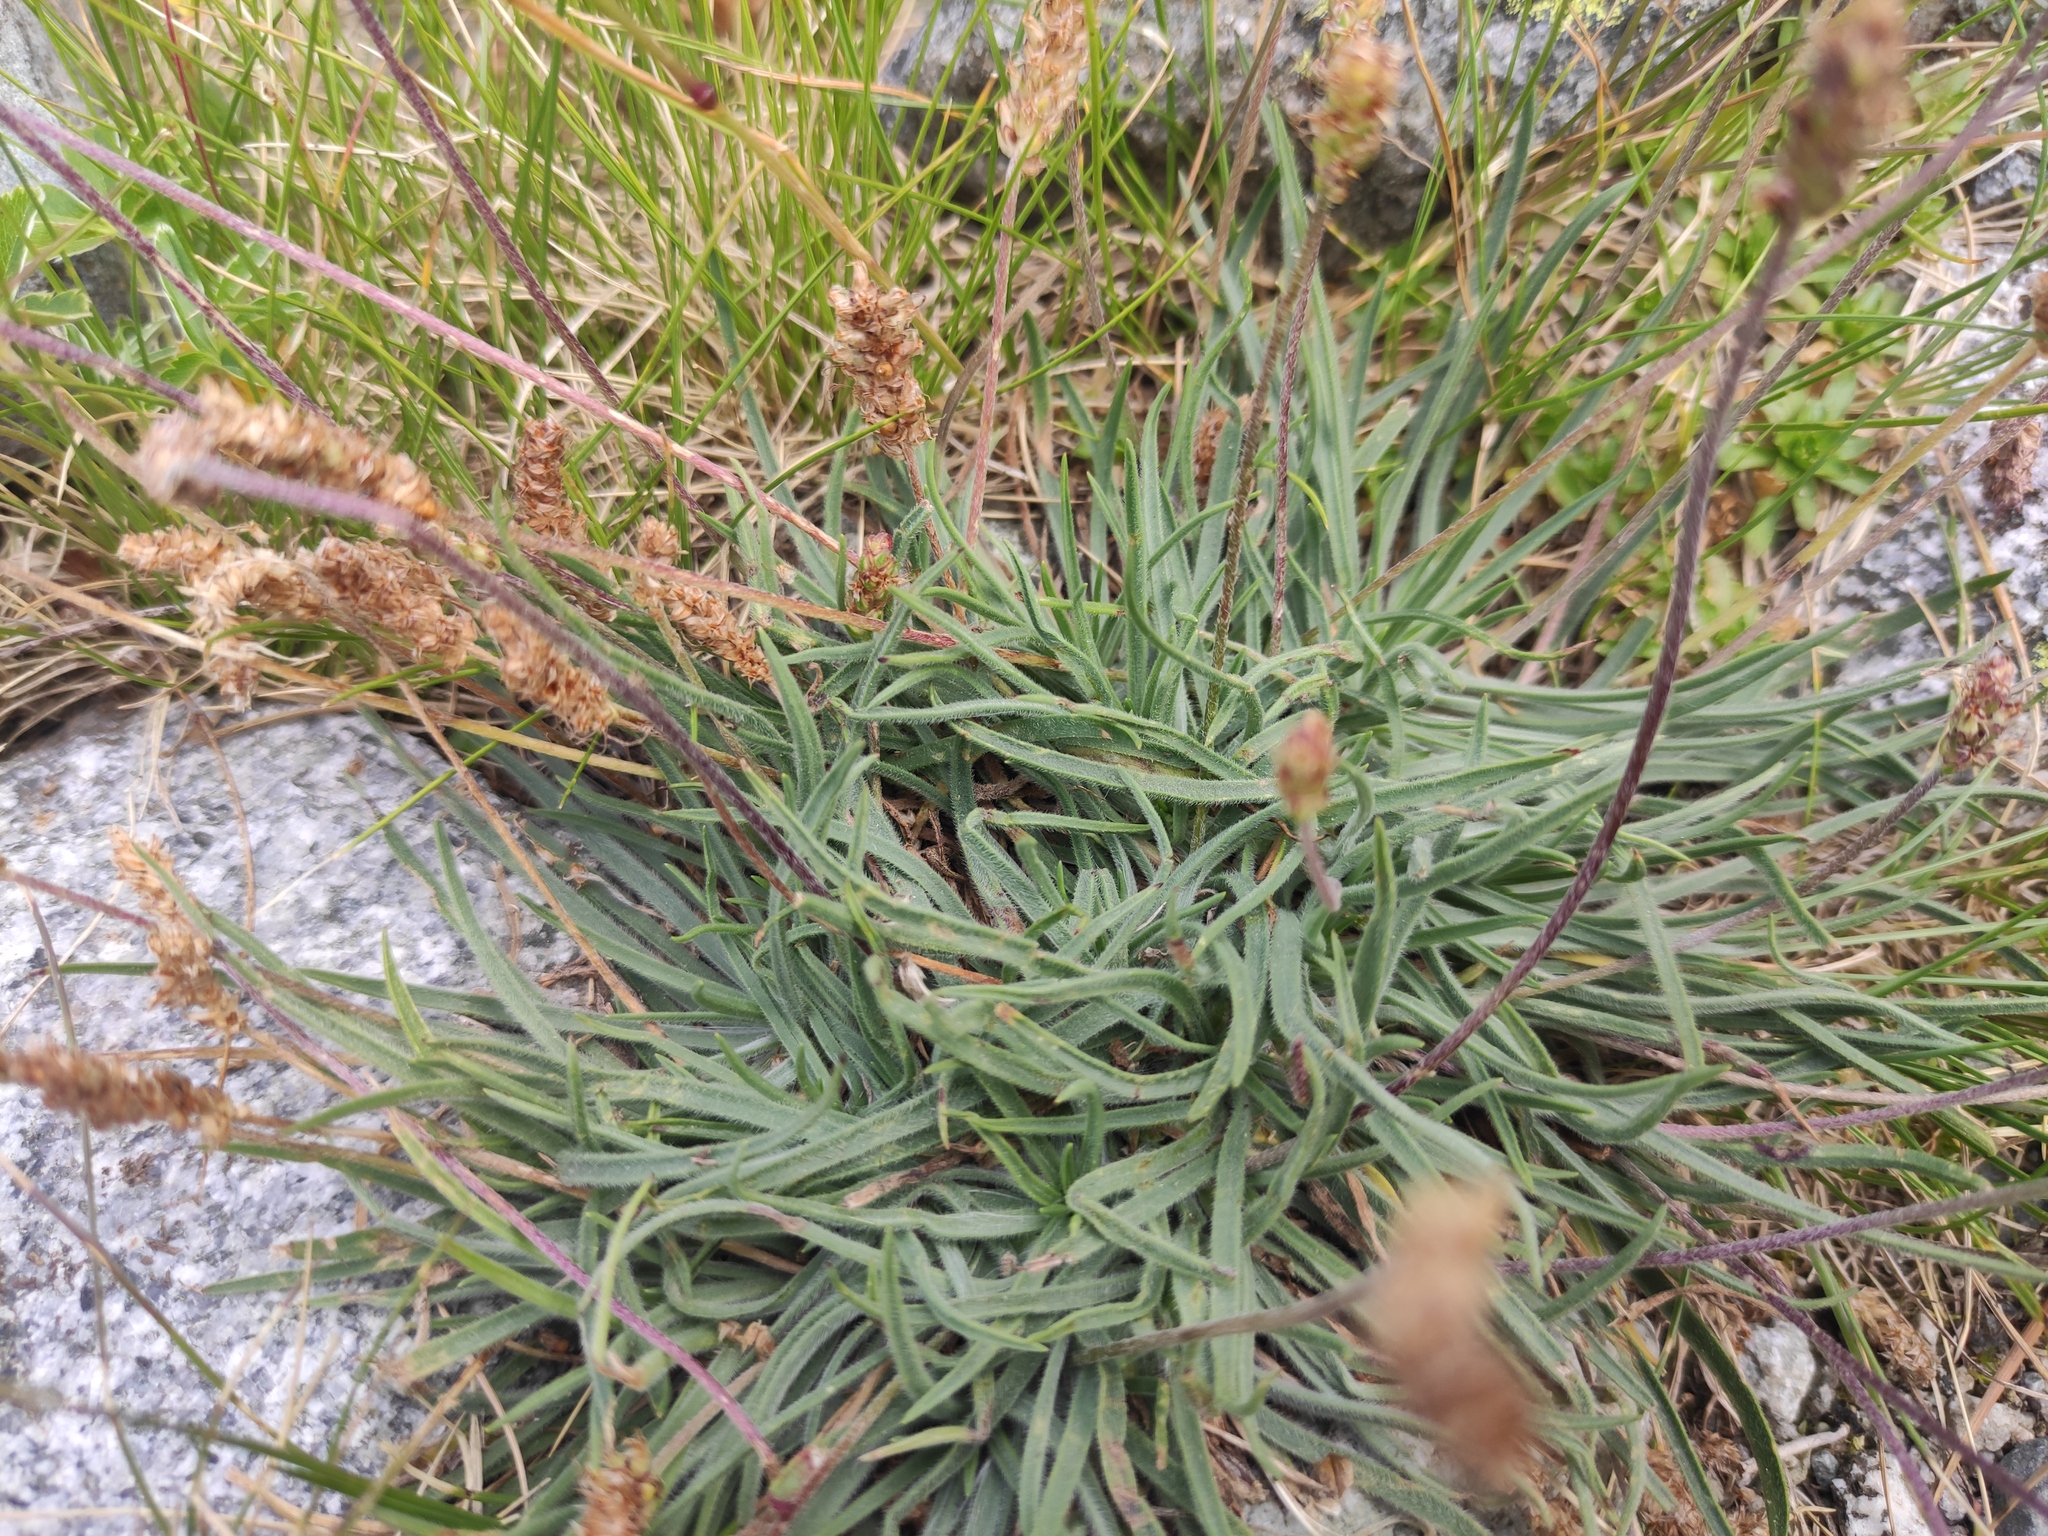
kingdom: Plantae
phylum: Tracheophyta
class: Magnoliopsida
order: Lamiales
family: Plantaginaceae
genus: Plantago
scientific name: Plantago alpina
